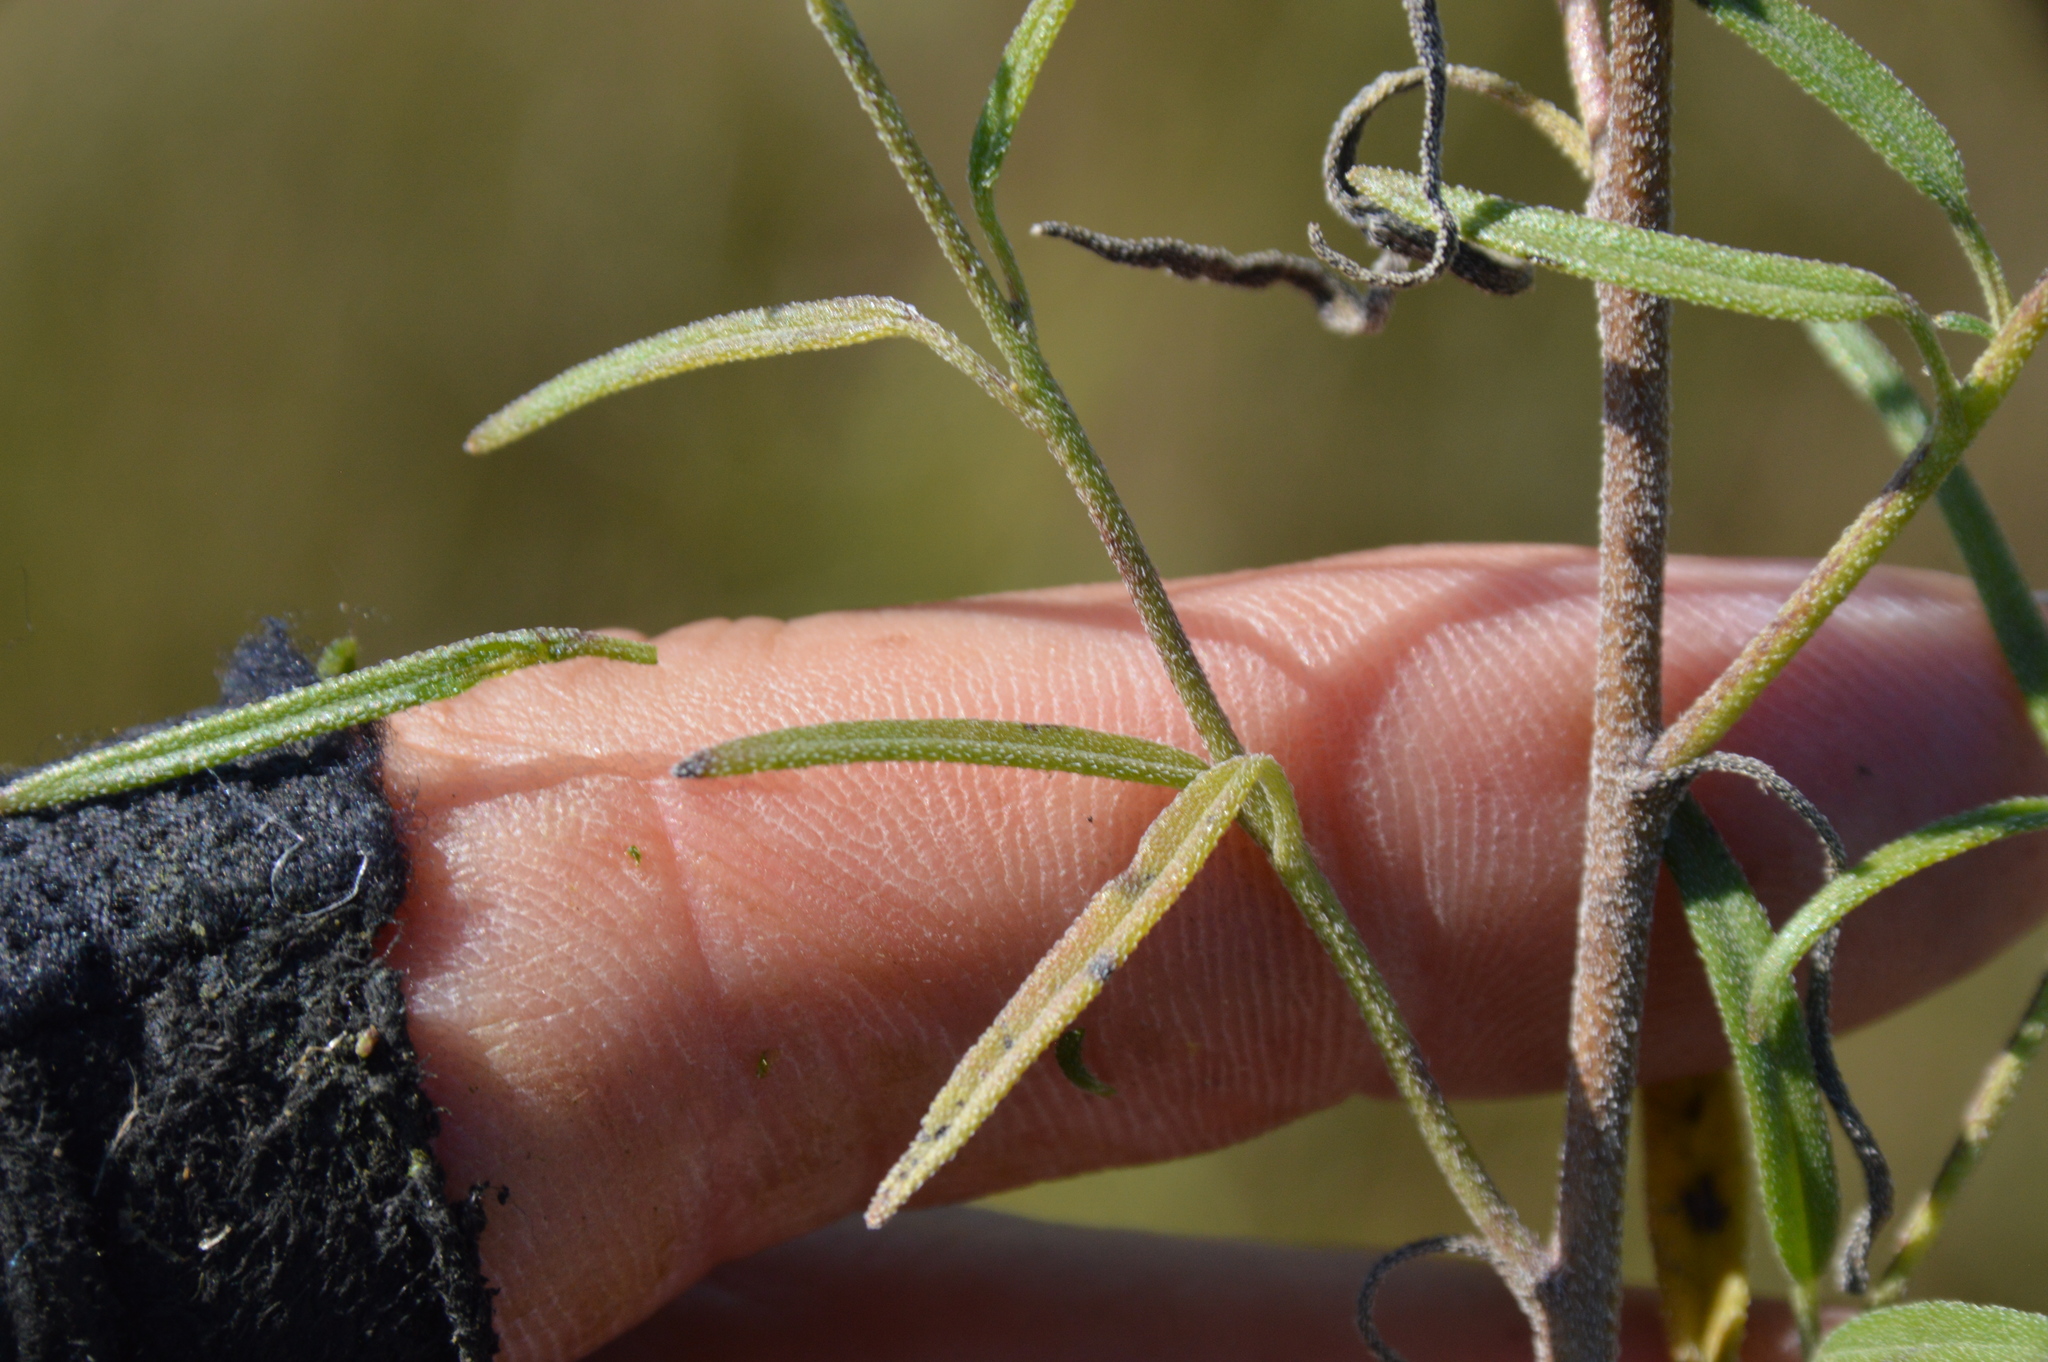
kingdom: Plantae
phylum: Tracheophyta
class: Magnoliopsida
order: Asterales
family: Asteraceae
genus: Palafoxia
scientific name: Palafoxia rosea
